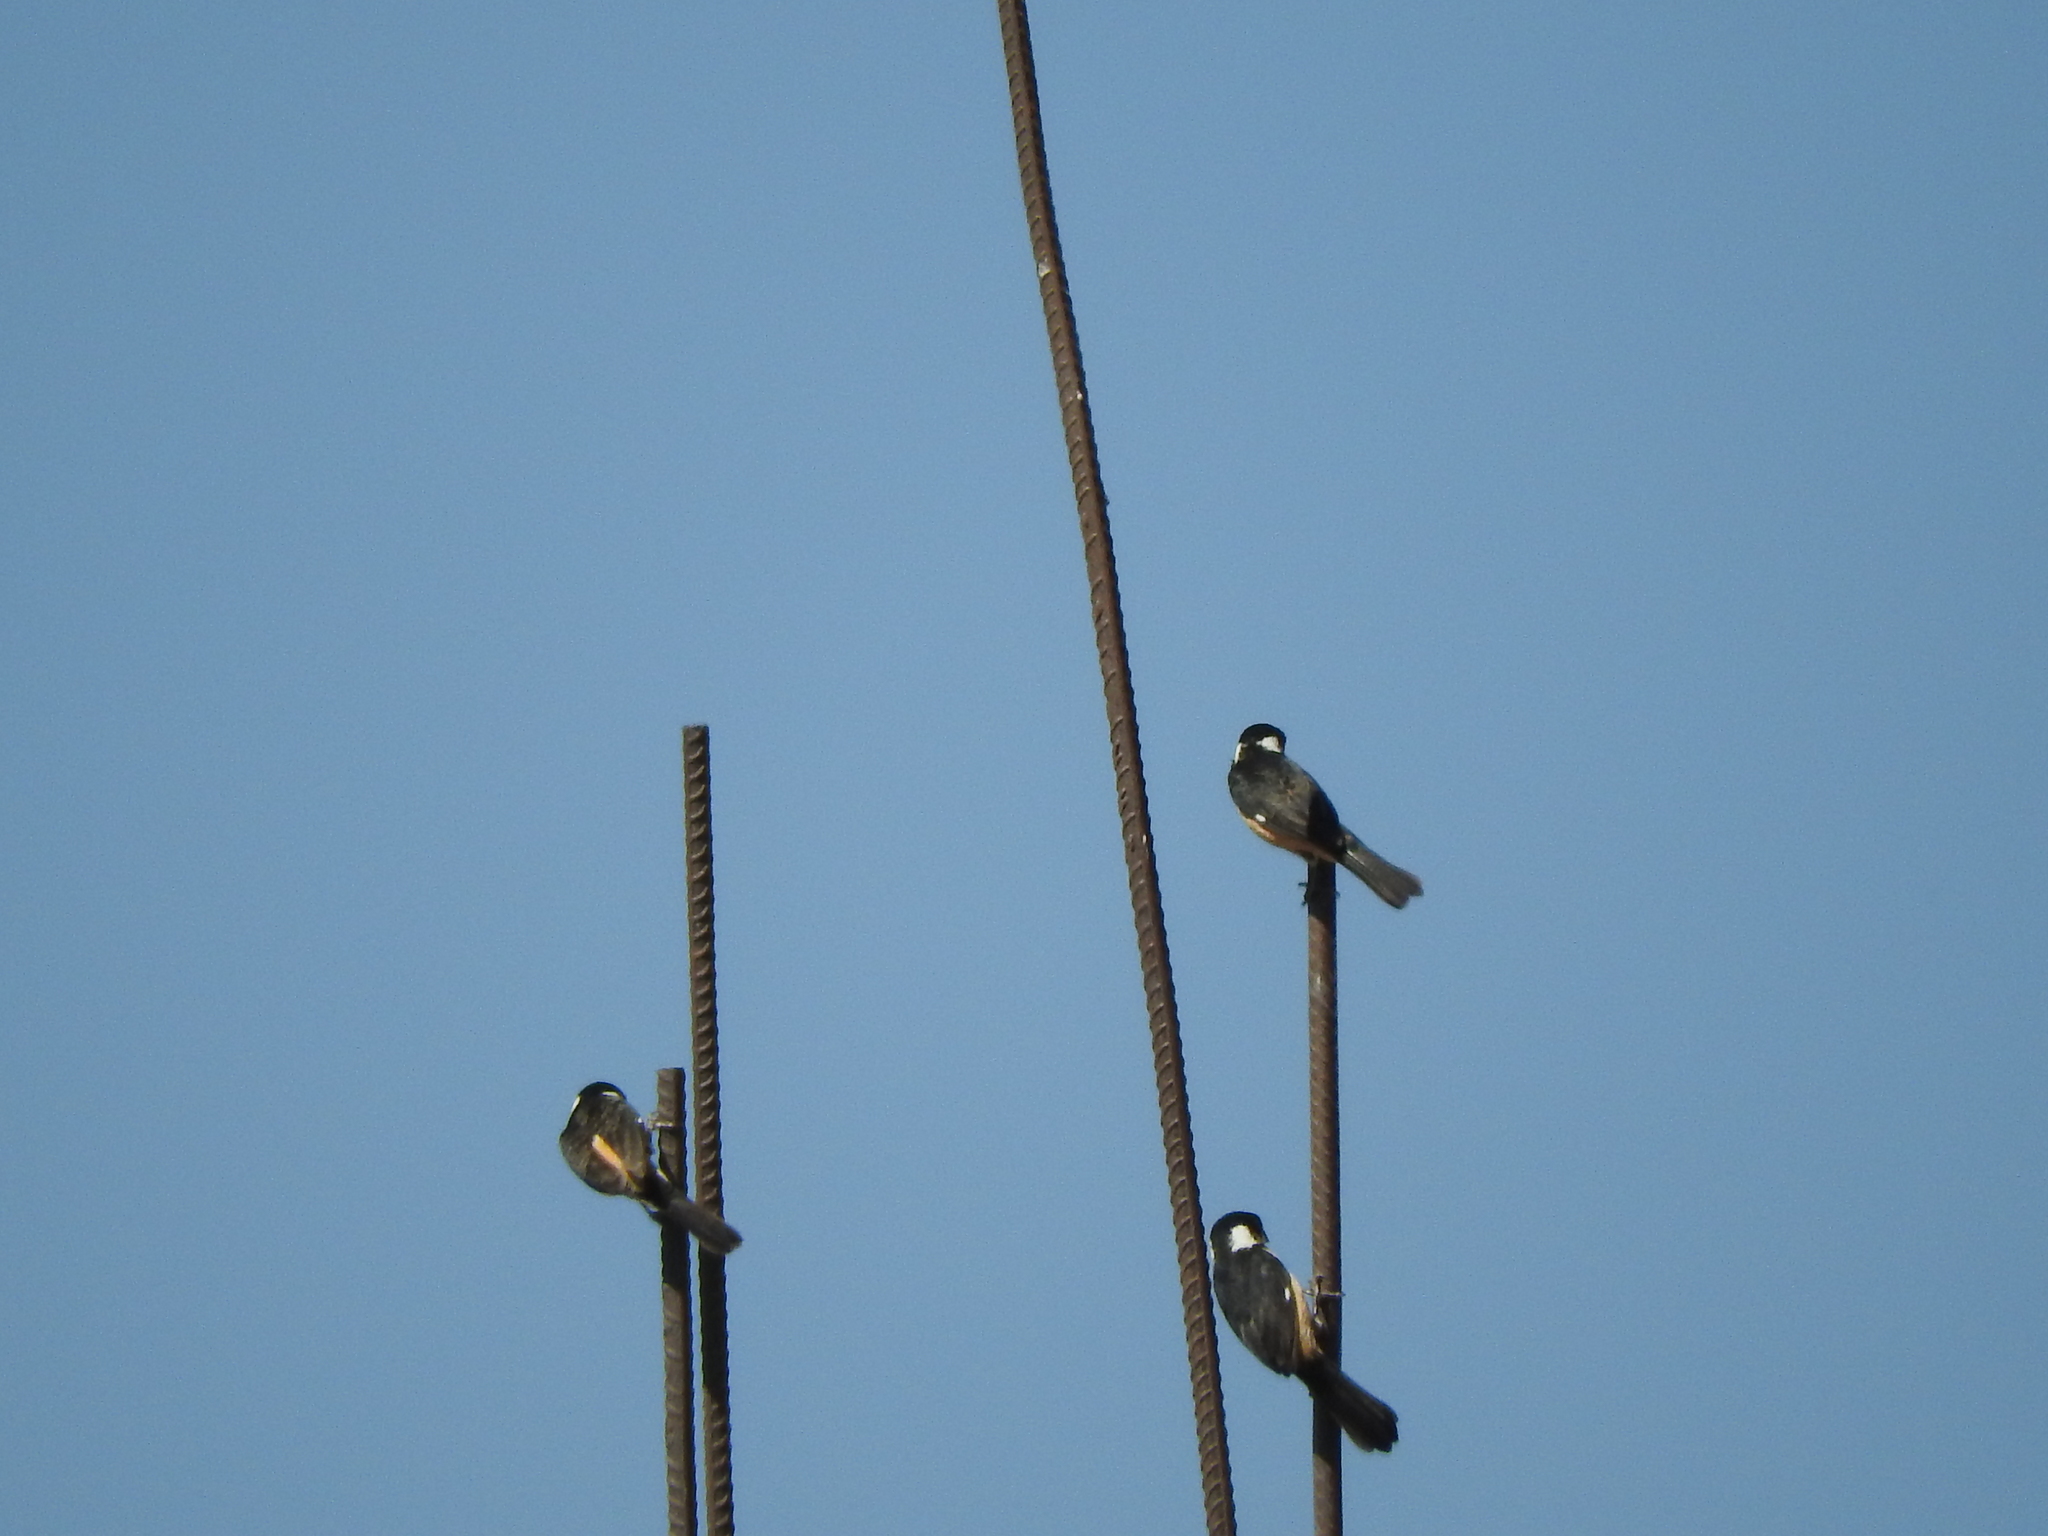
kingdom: Animalia
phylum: Chordata
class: Aves
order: Passeriformes
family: Thraupidae
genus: Sporophila
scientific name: Sporophila torqueola
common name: White-collared seedeater
